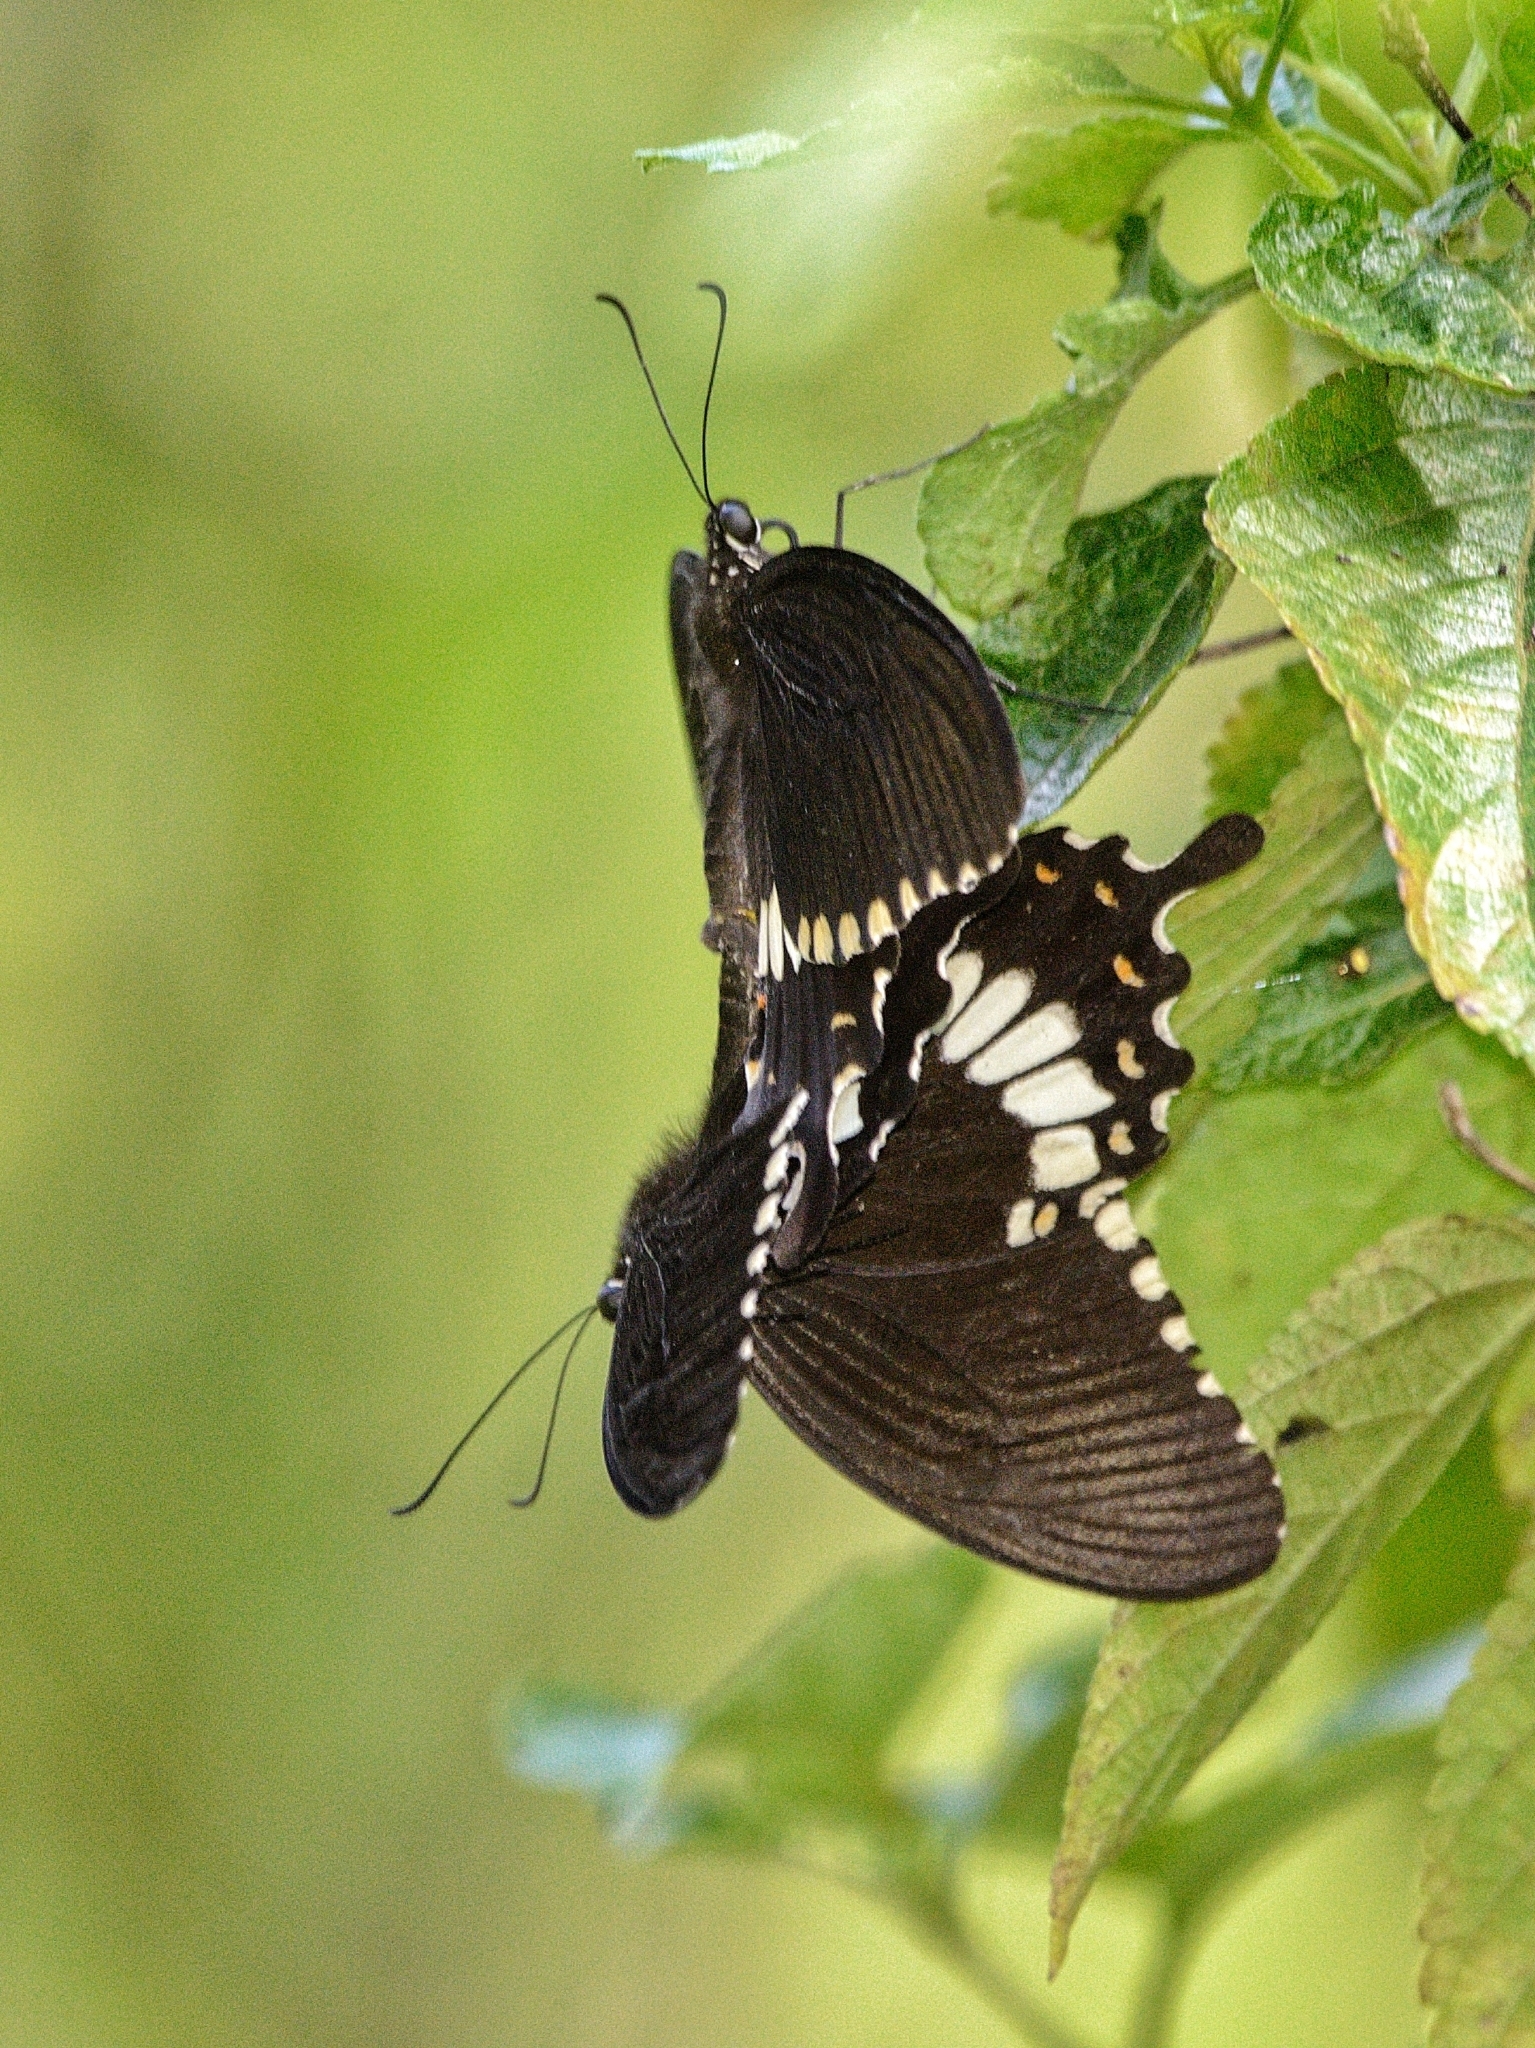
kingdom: Animalia
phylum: Arthropoda
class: Insecta
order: Lepidoptera
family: Papilionidae
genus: Papilio
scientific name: Papilio polytes
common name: Common mormon
